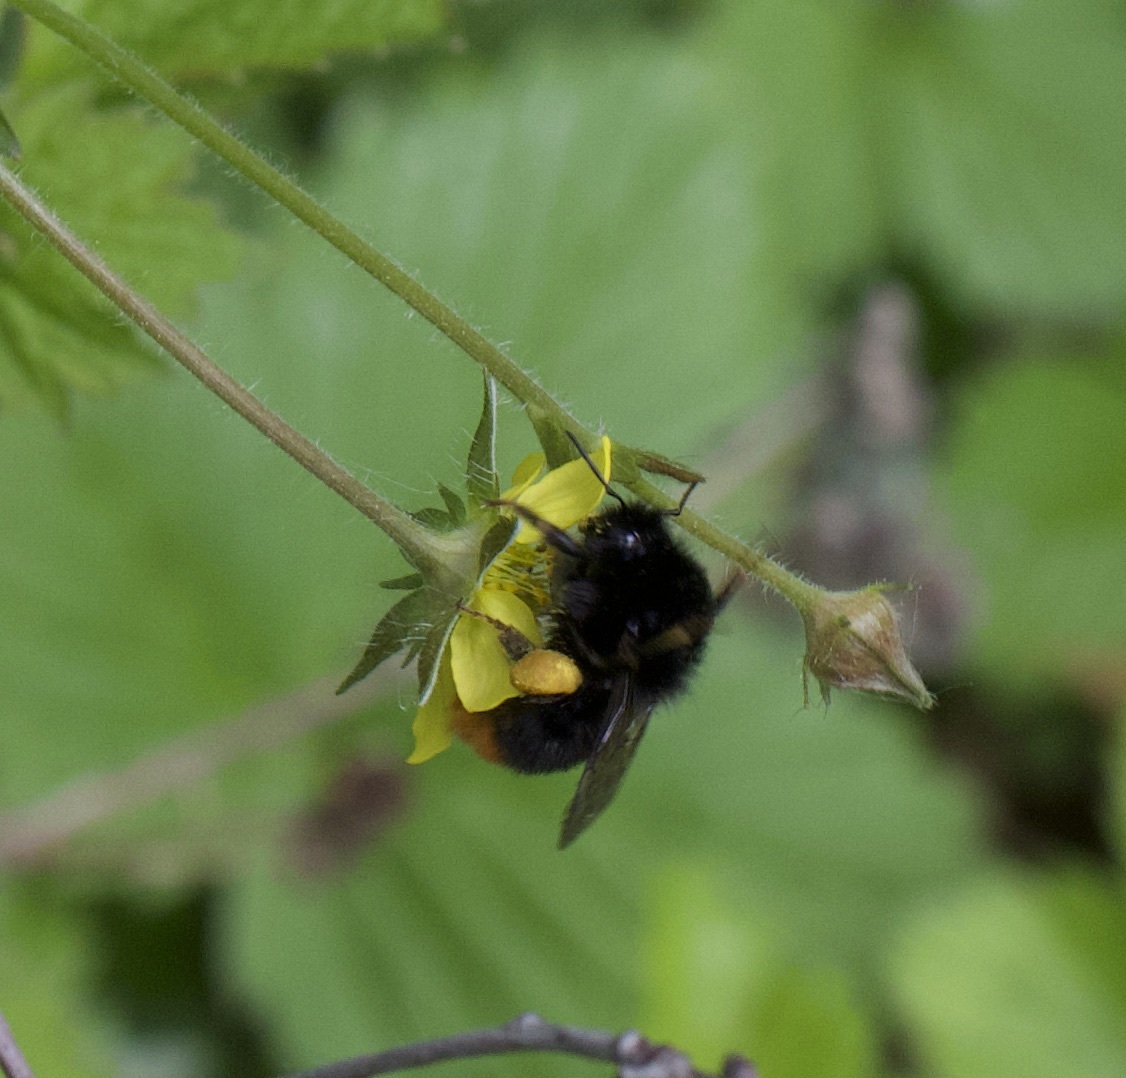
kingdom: Animalia
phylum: Arthropoda
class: Insecta
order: Hymenoptera
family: Apidae
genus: Bombus
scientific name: Bombus lapidarius
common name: Large red-tailed humble-bee
